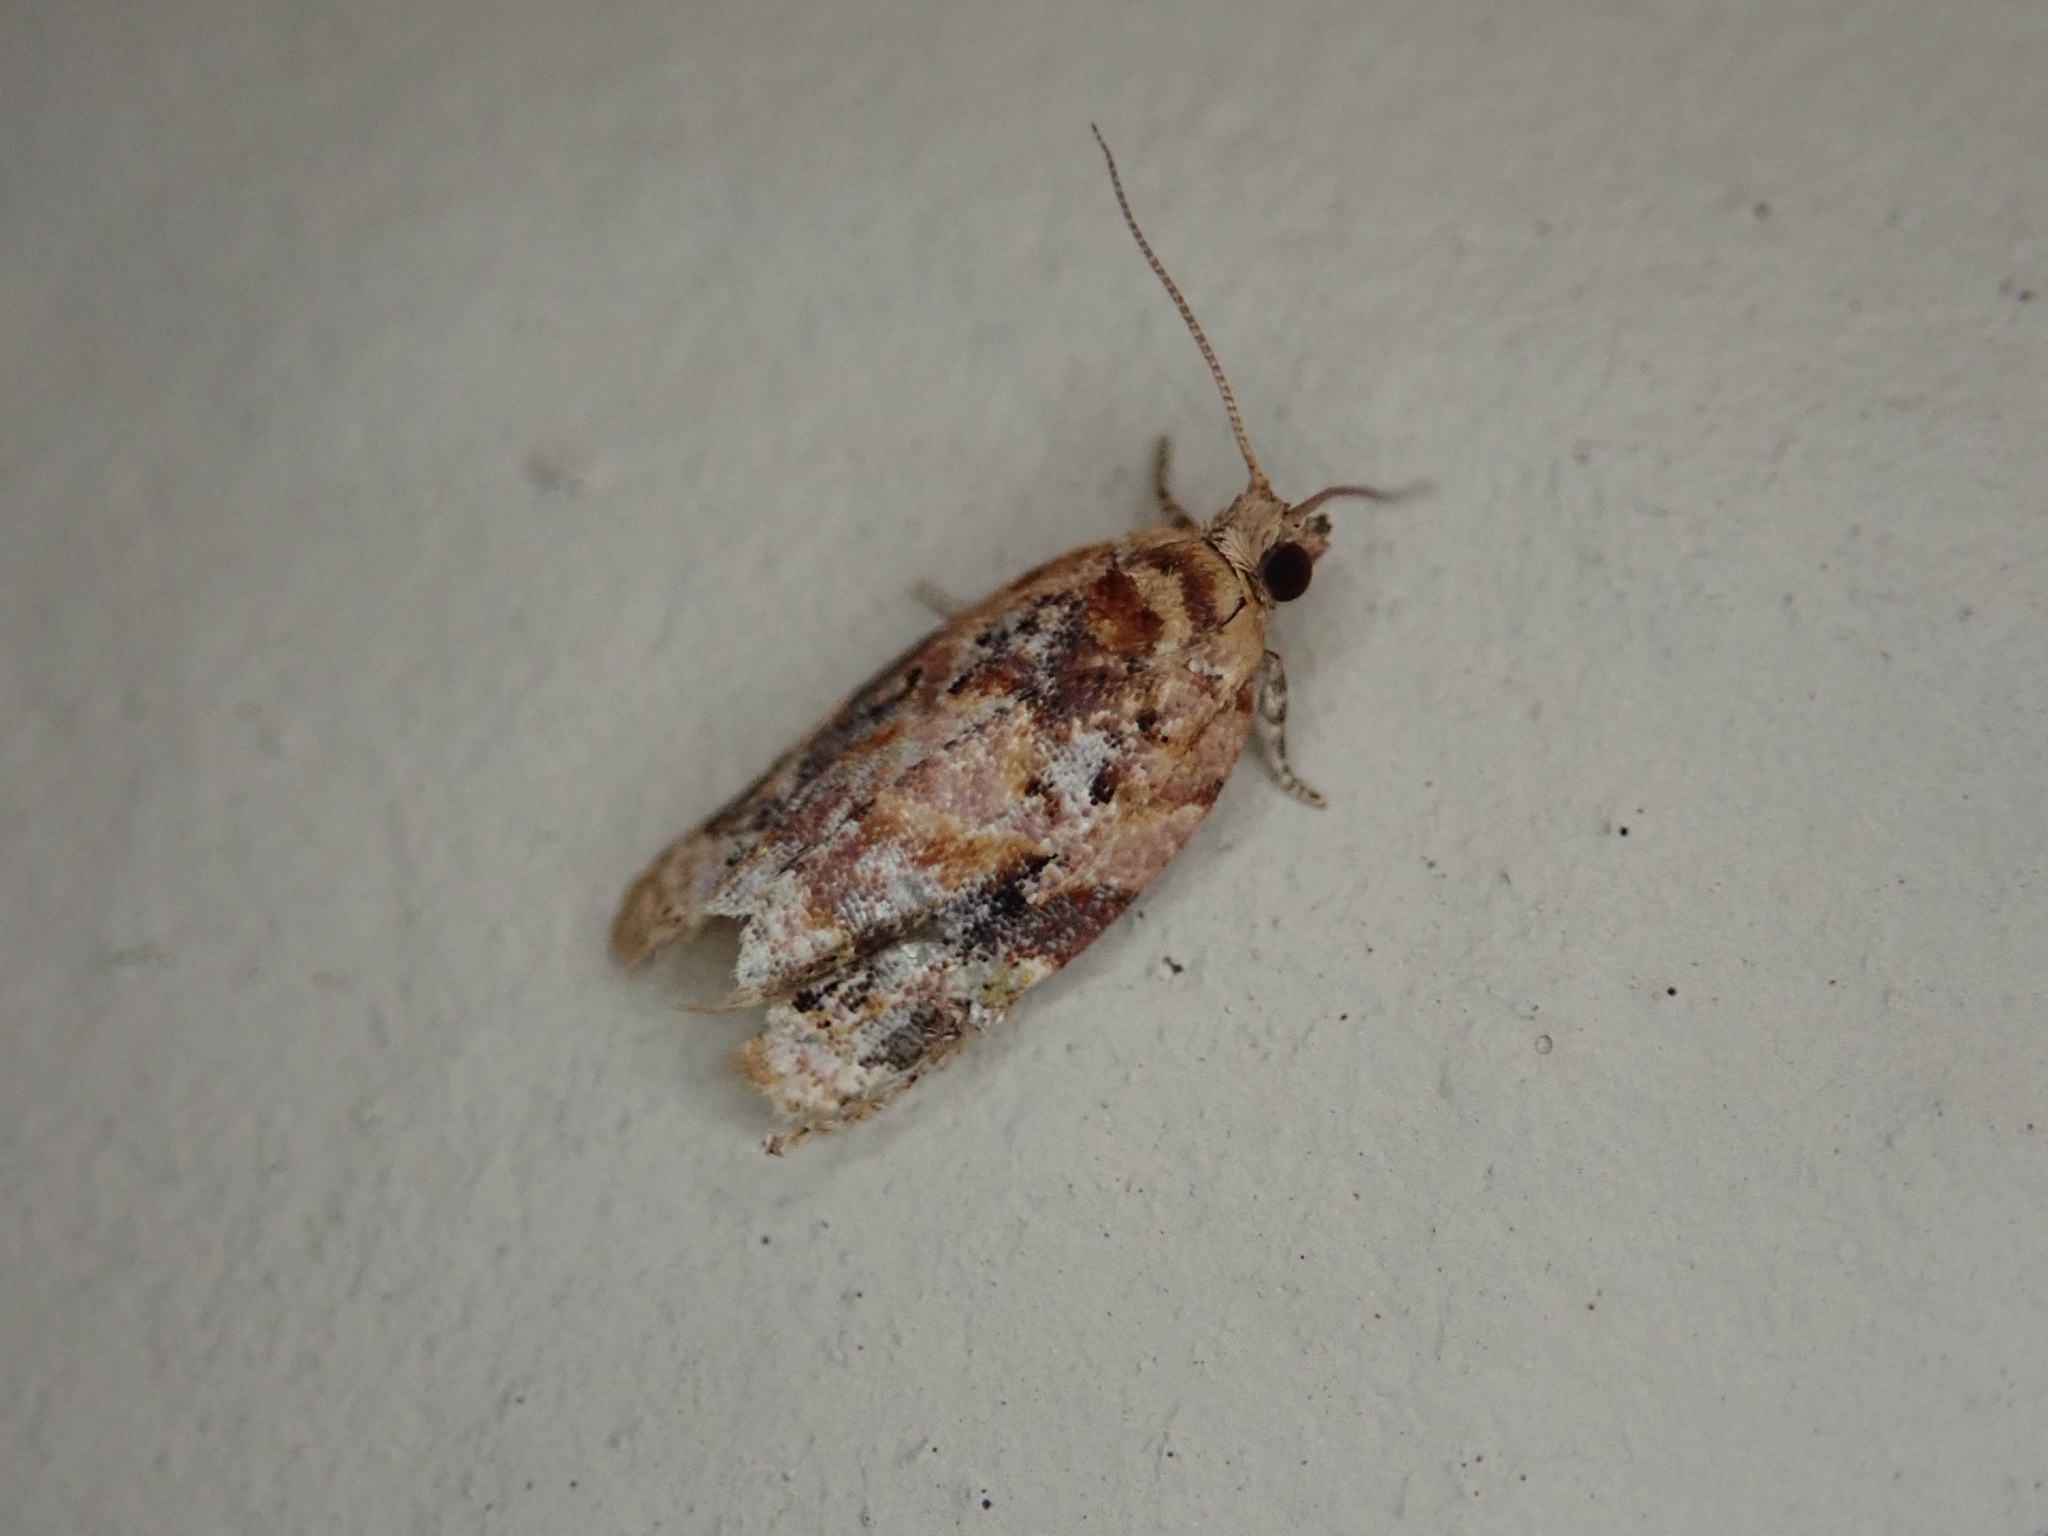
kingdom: Animalia
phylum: Arthropoda
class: Insecta
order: Lepidoptera
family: Tortricidae
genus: Argyrotaenia
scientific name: Argyrotaenia velutinana
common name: Red-banded leafroller moth
